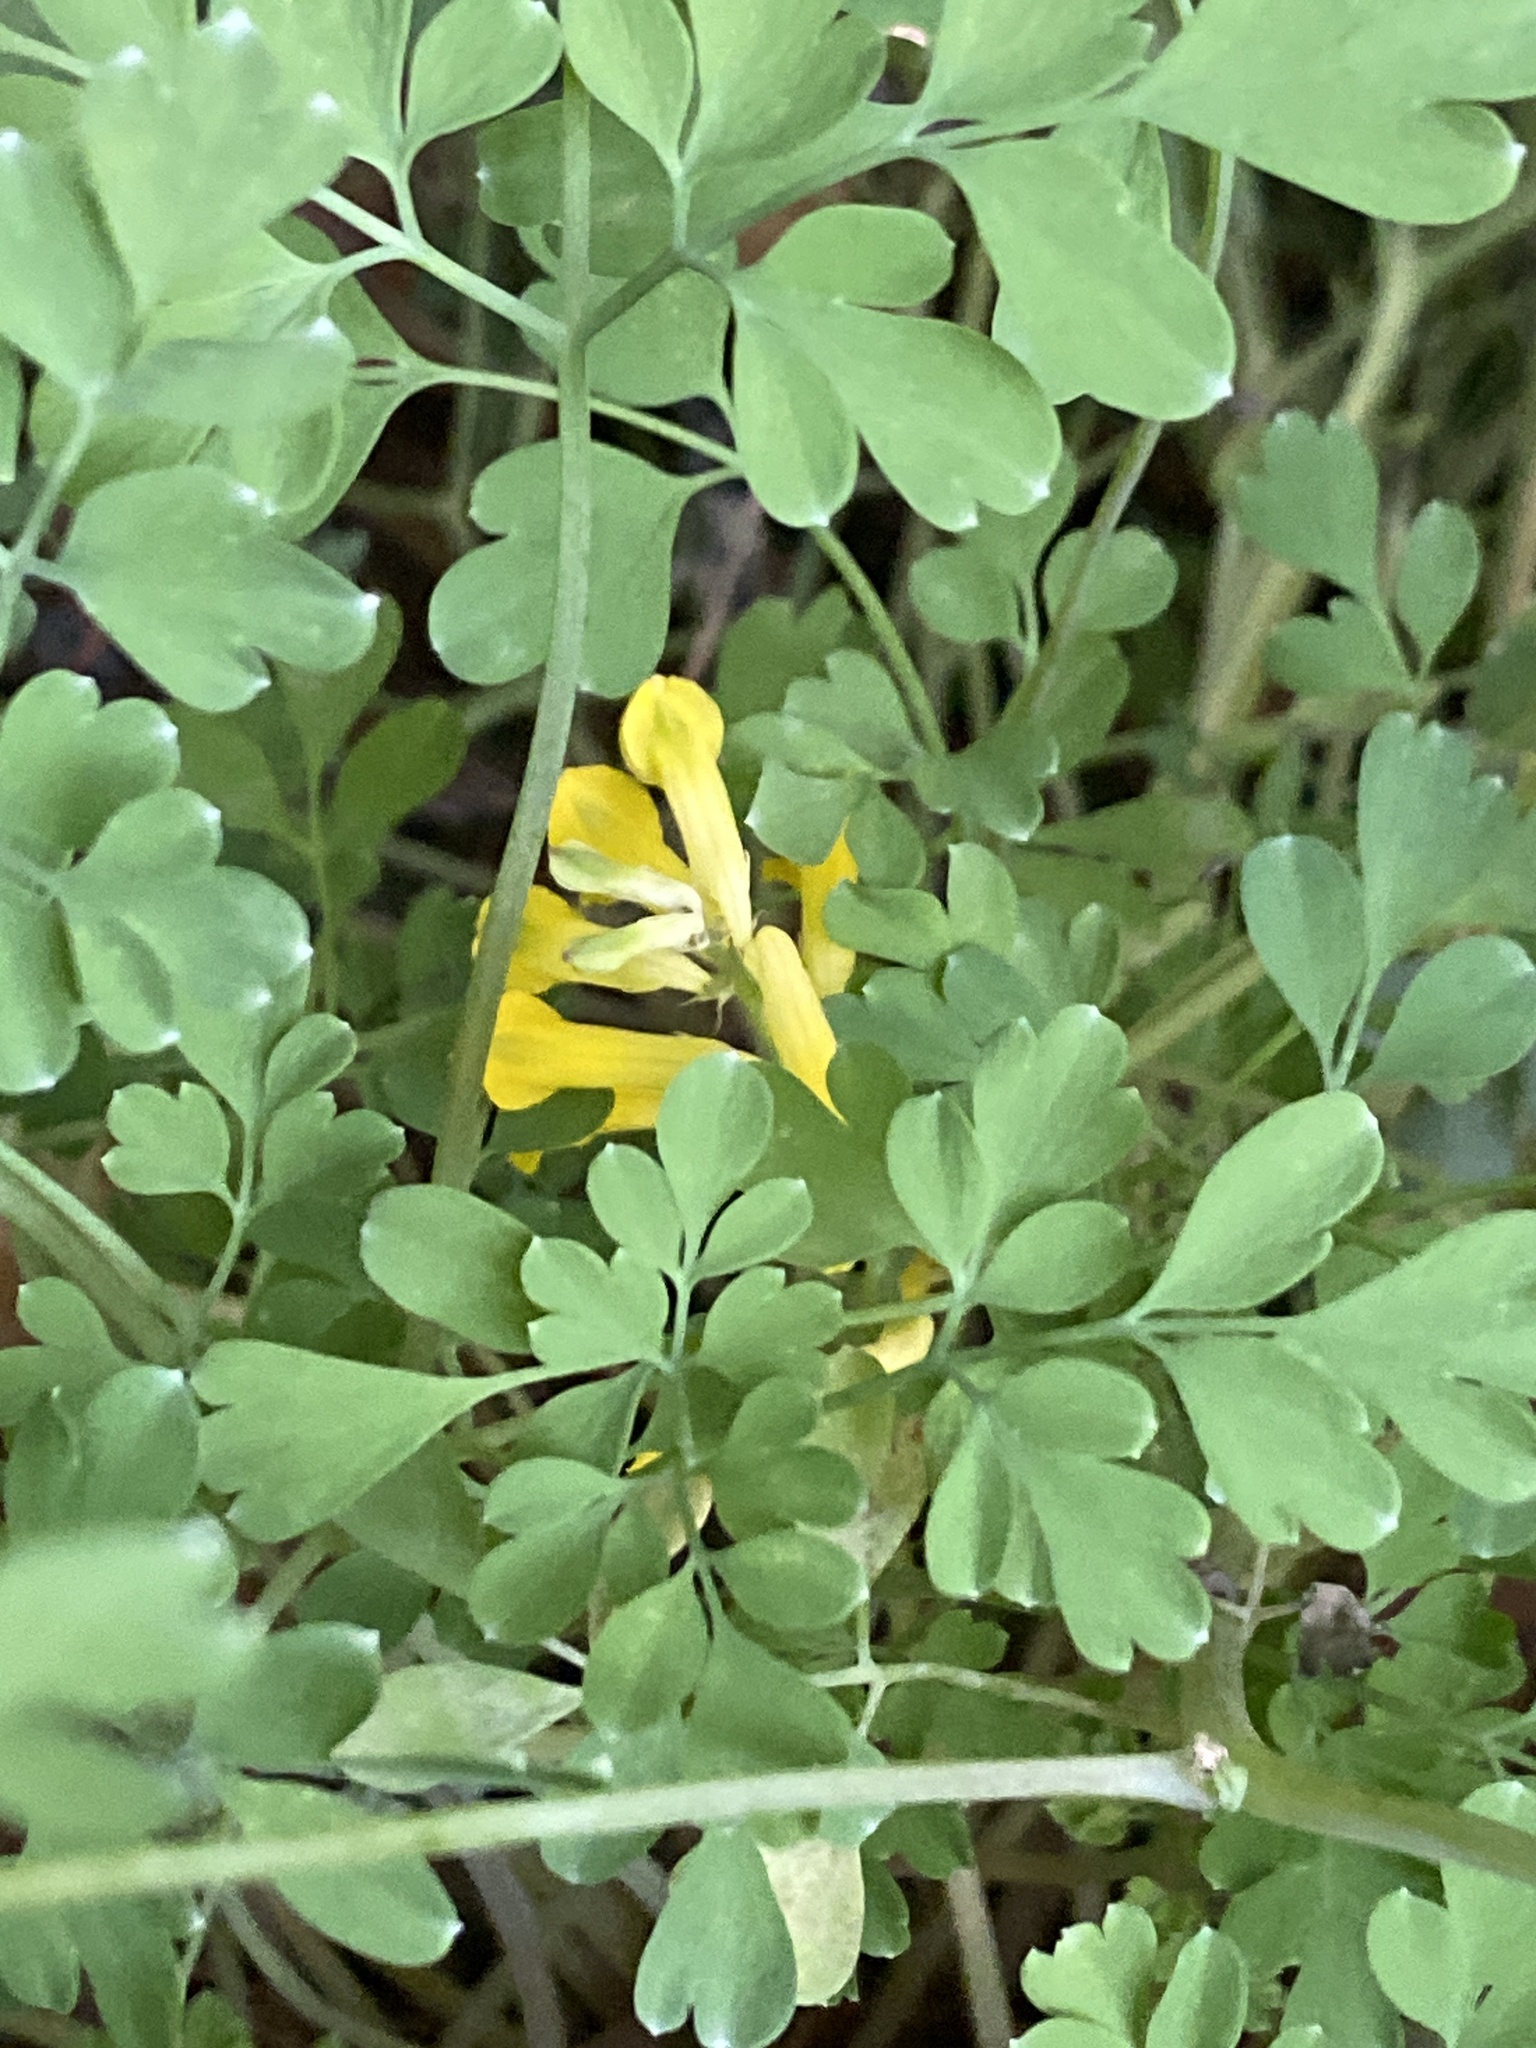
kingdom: Plantae
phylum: Tracheophyta
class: Magnoliopsida
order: Ranunculales
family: Papaveraceae
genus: Pseudofumaria
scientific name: Pseudofumaria lutea
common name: Yellow corydalis
